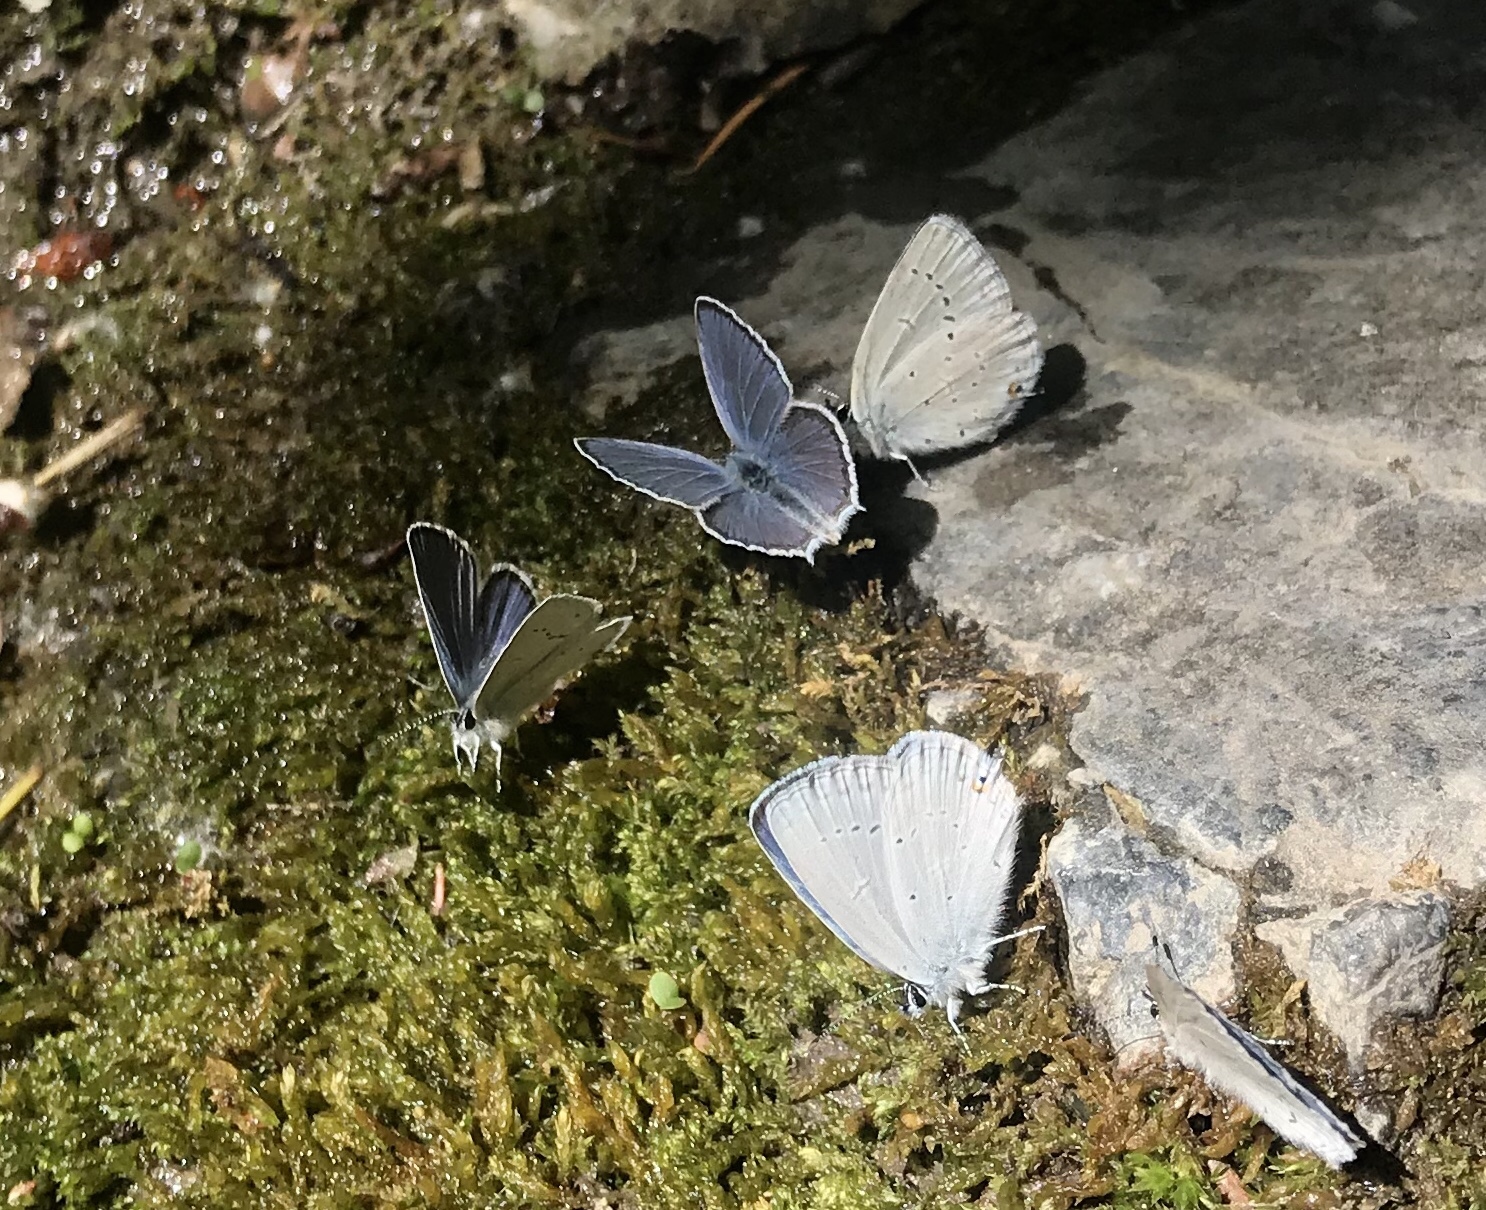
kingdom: Animalia
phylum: Arthropoda
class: Insecta
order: Lepidoptera
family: Lycaenidae
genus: Elkalyce
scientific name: Elkalyce amyntula
